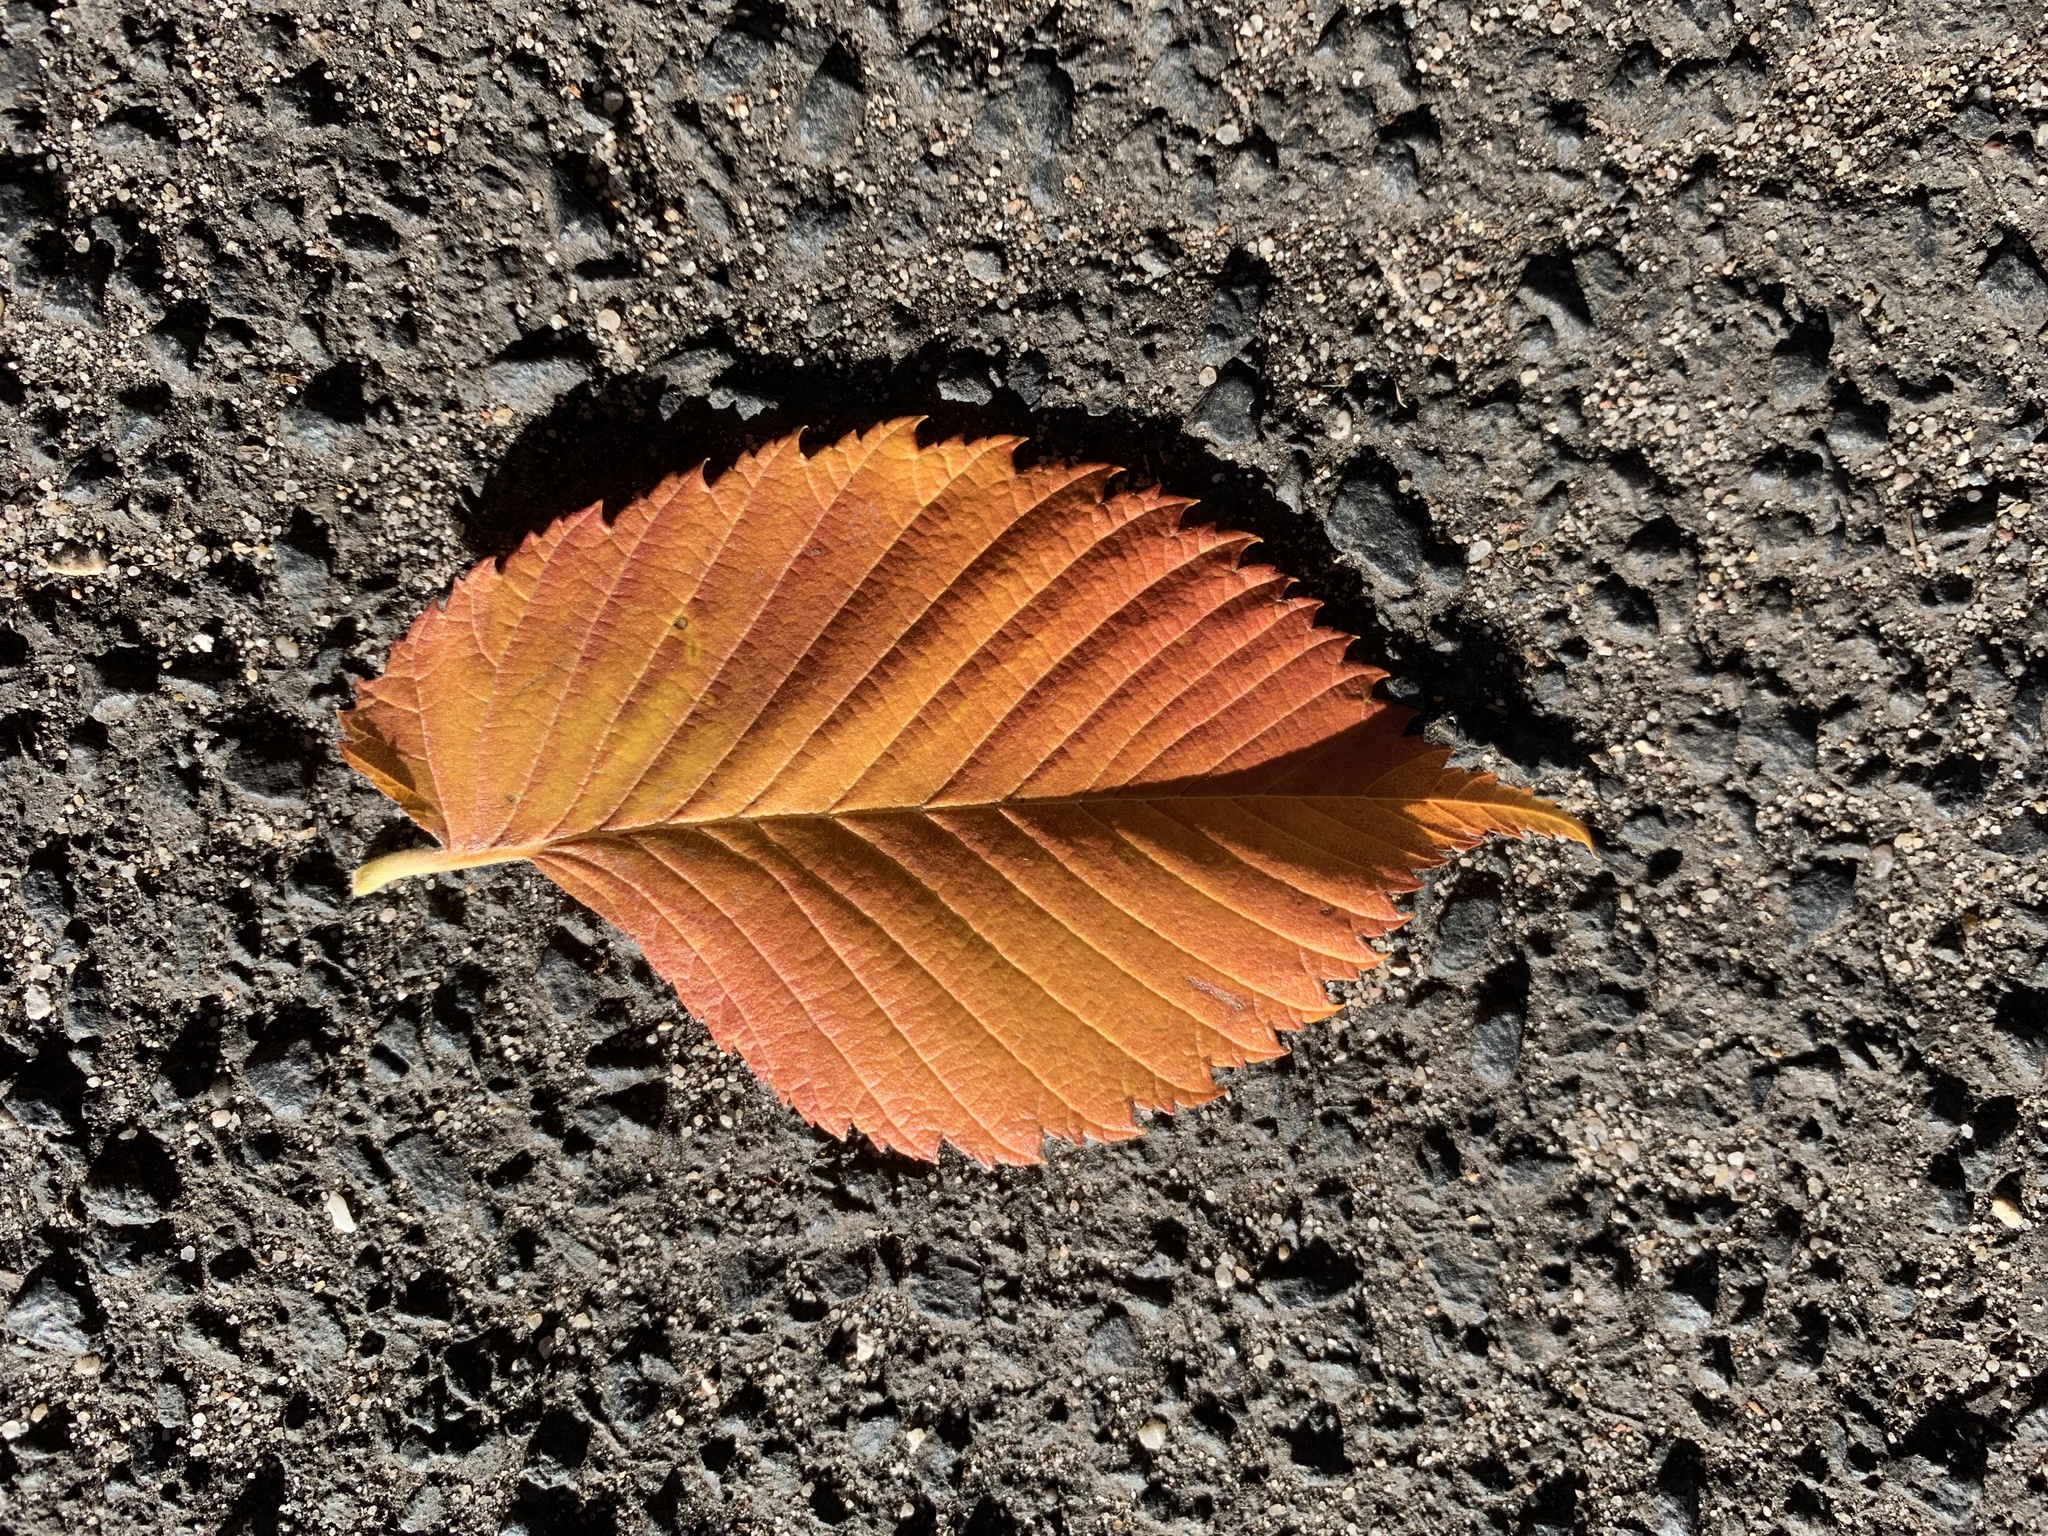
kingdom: Plantae
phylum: Tracheophyta
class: Magnoliopsida
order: Rosales
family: Ulmaceae
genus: Ulmus
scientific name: Ulmus laevis
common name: European white-elm
